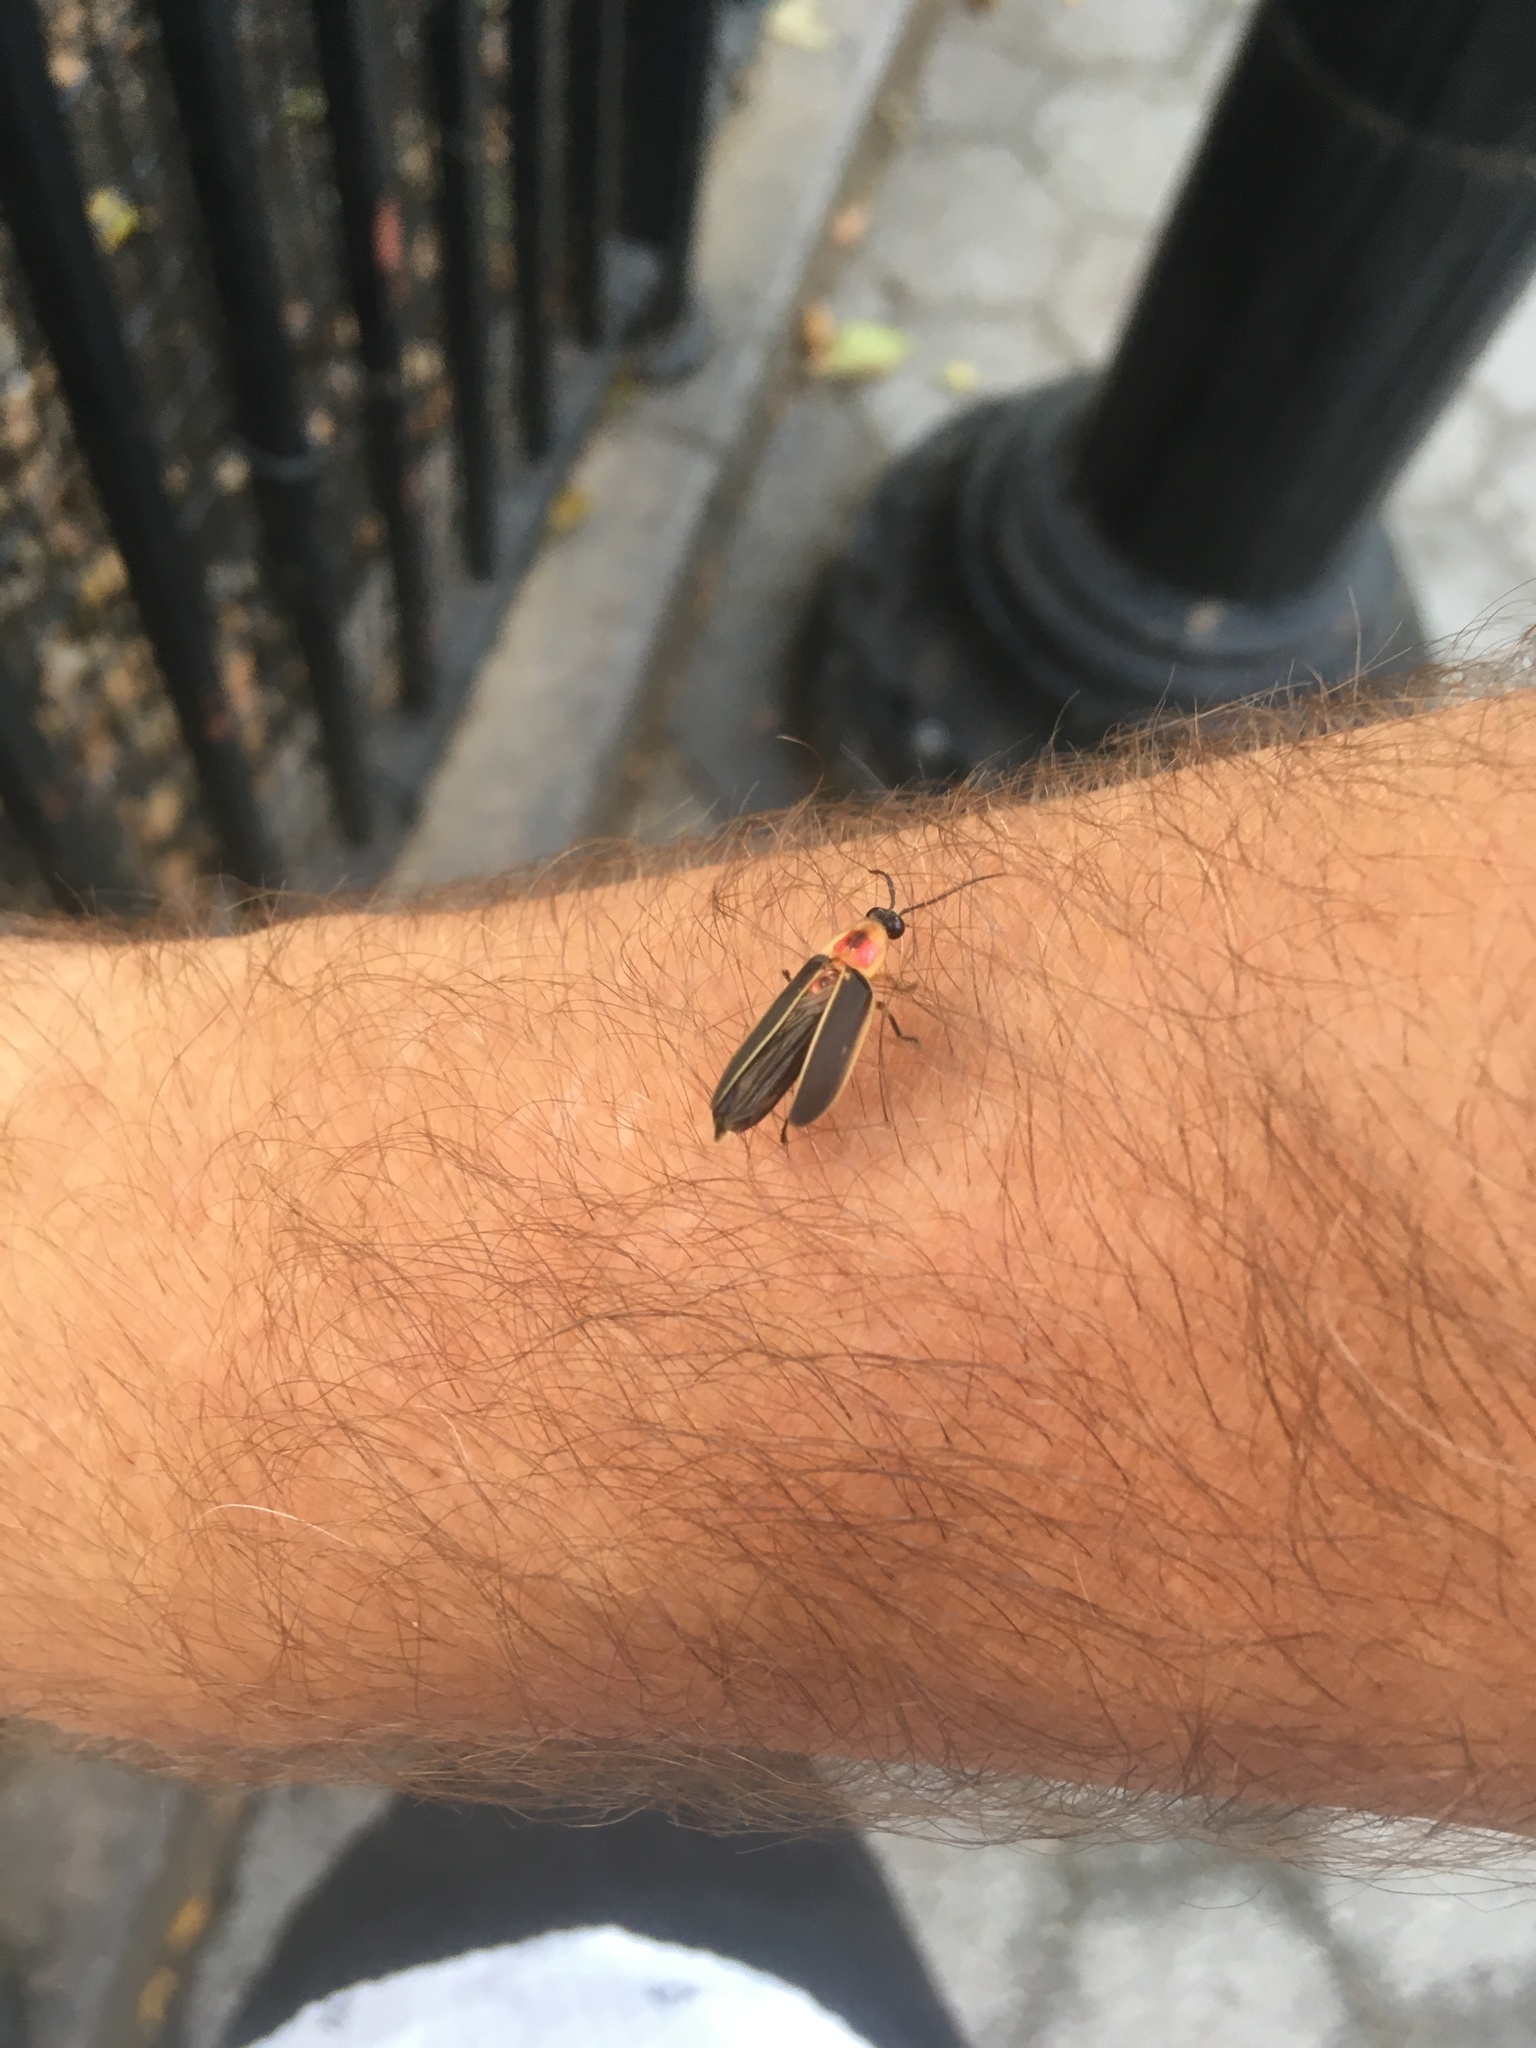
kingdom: Animalia
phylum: Arthropoda
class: Insecta
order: Coleoptera
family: Lampyridae
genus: Photinus
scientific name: Photinus pyralis
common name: Big dipper firefly
